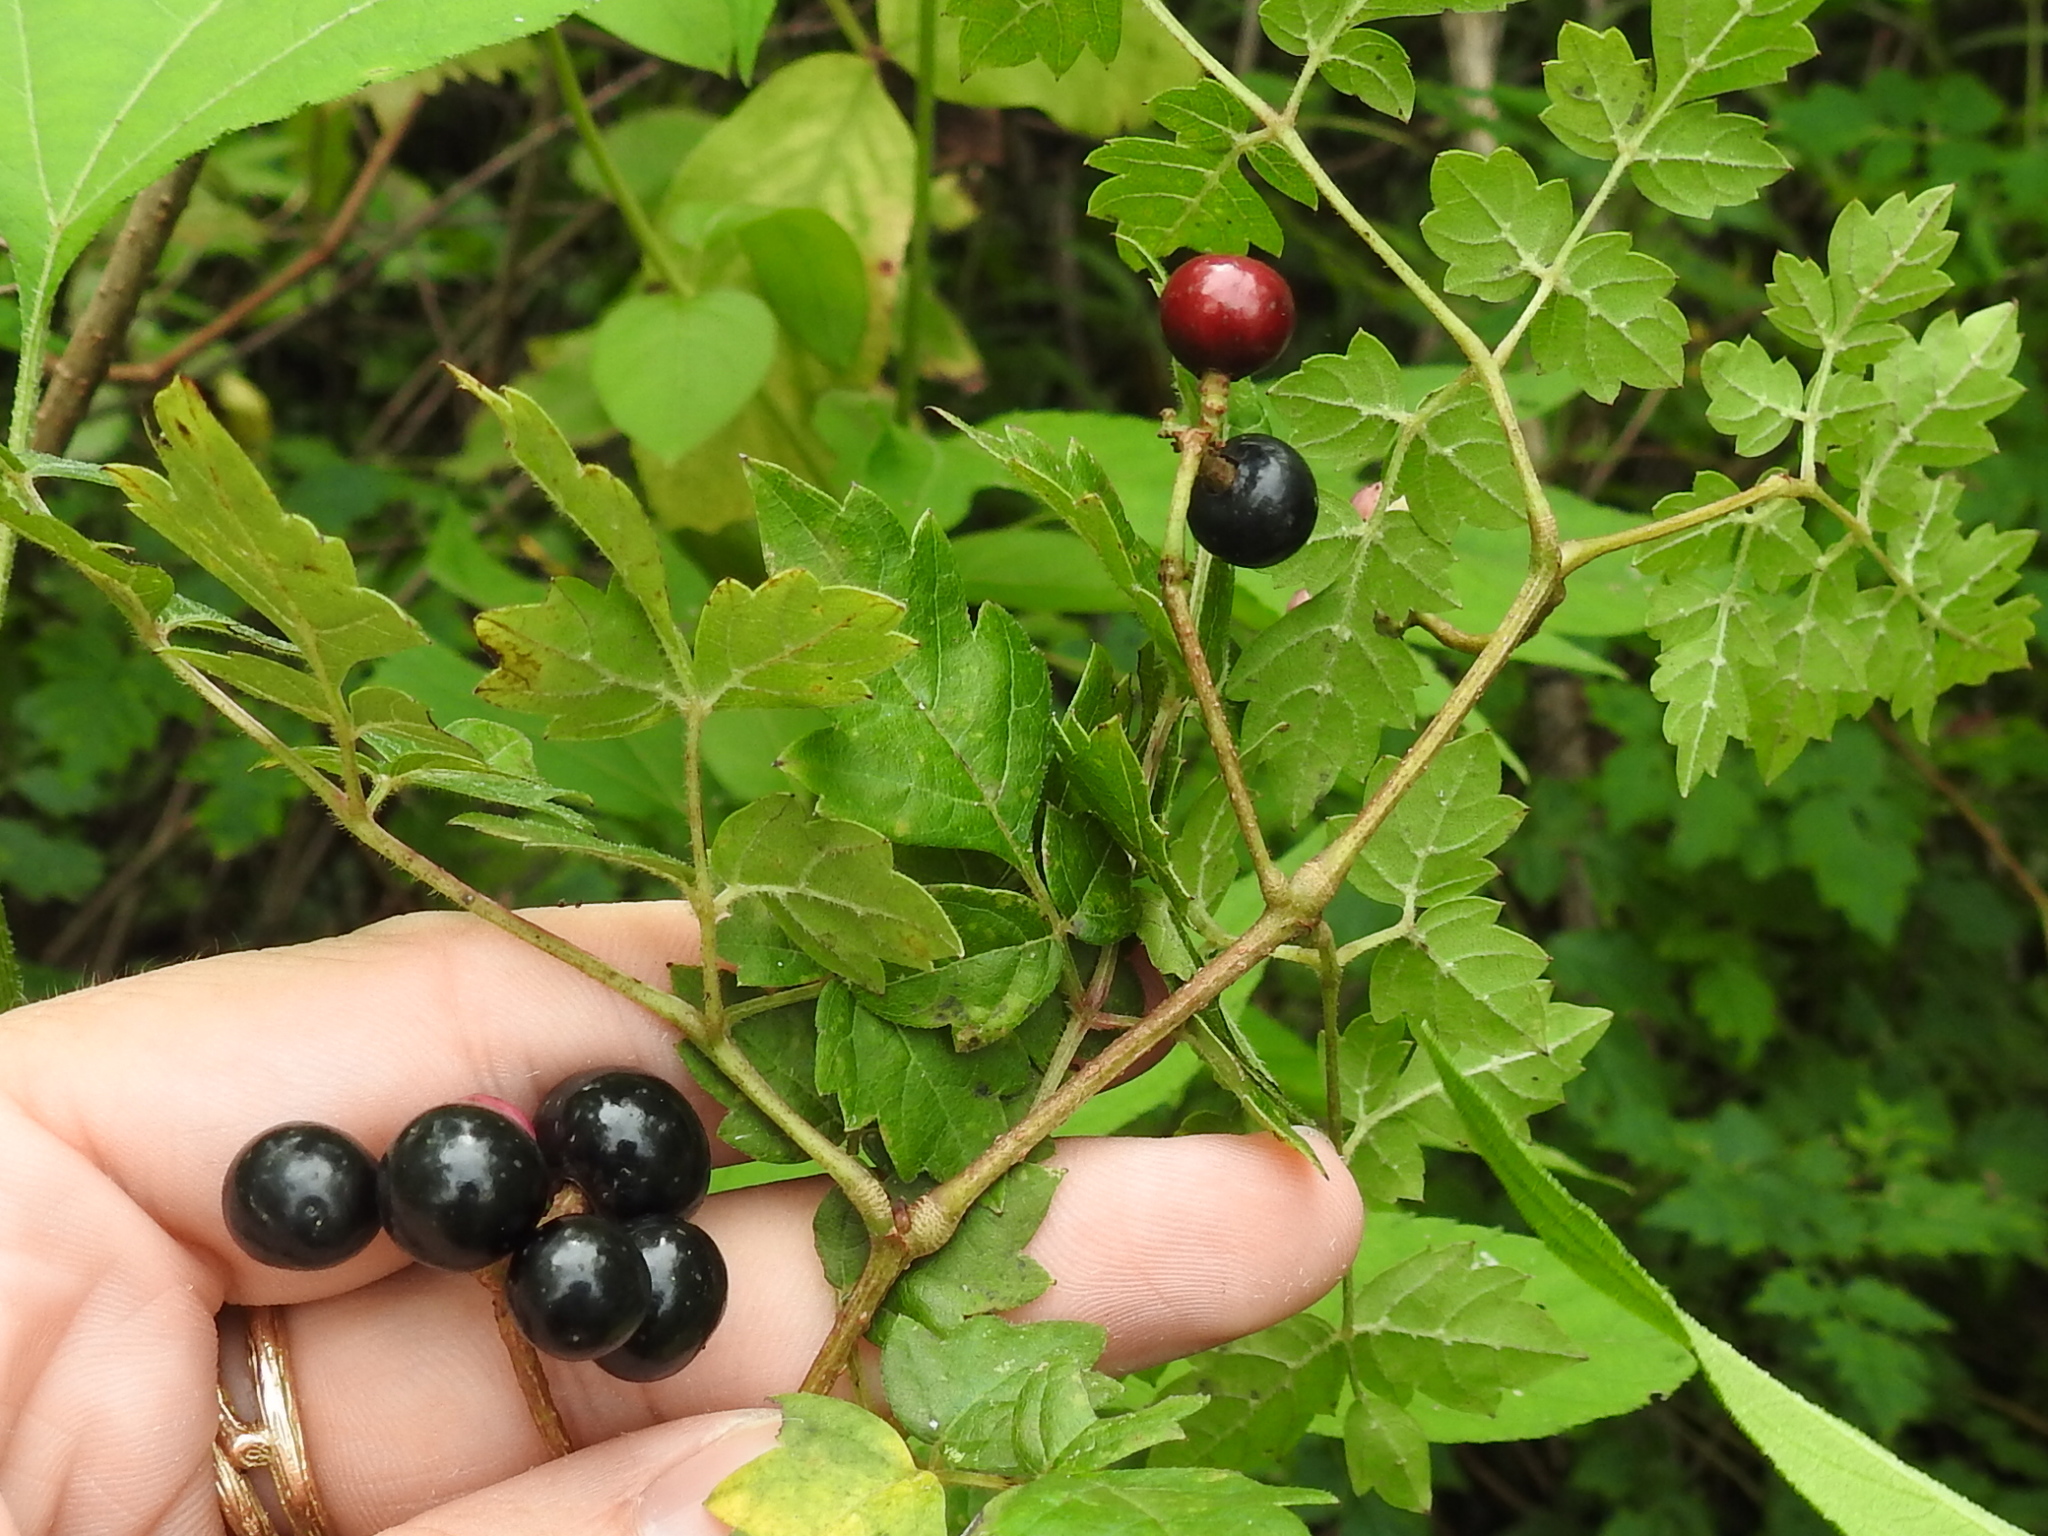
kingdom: Plantae
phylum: Tracheophyta
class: Magnoliopsida
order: Vitales
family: Vitaceae
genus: Nekemias
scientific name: Nekemias arborea
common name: Peppervine
